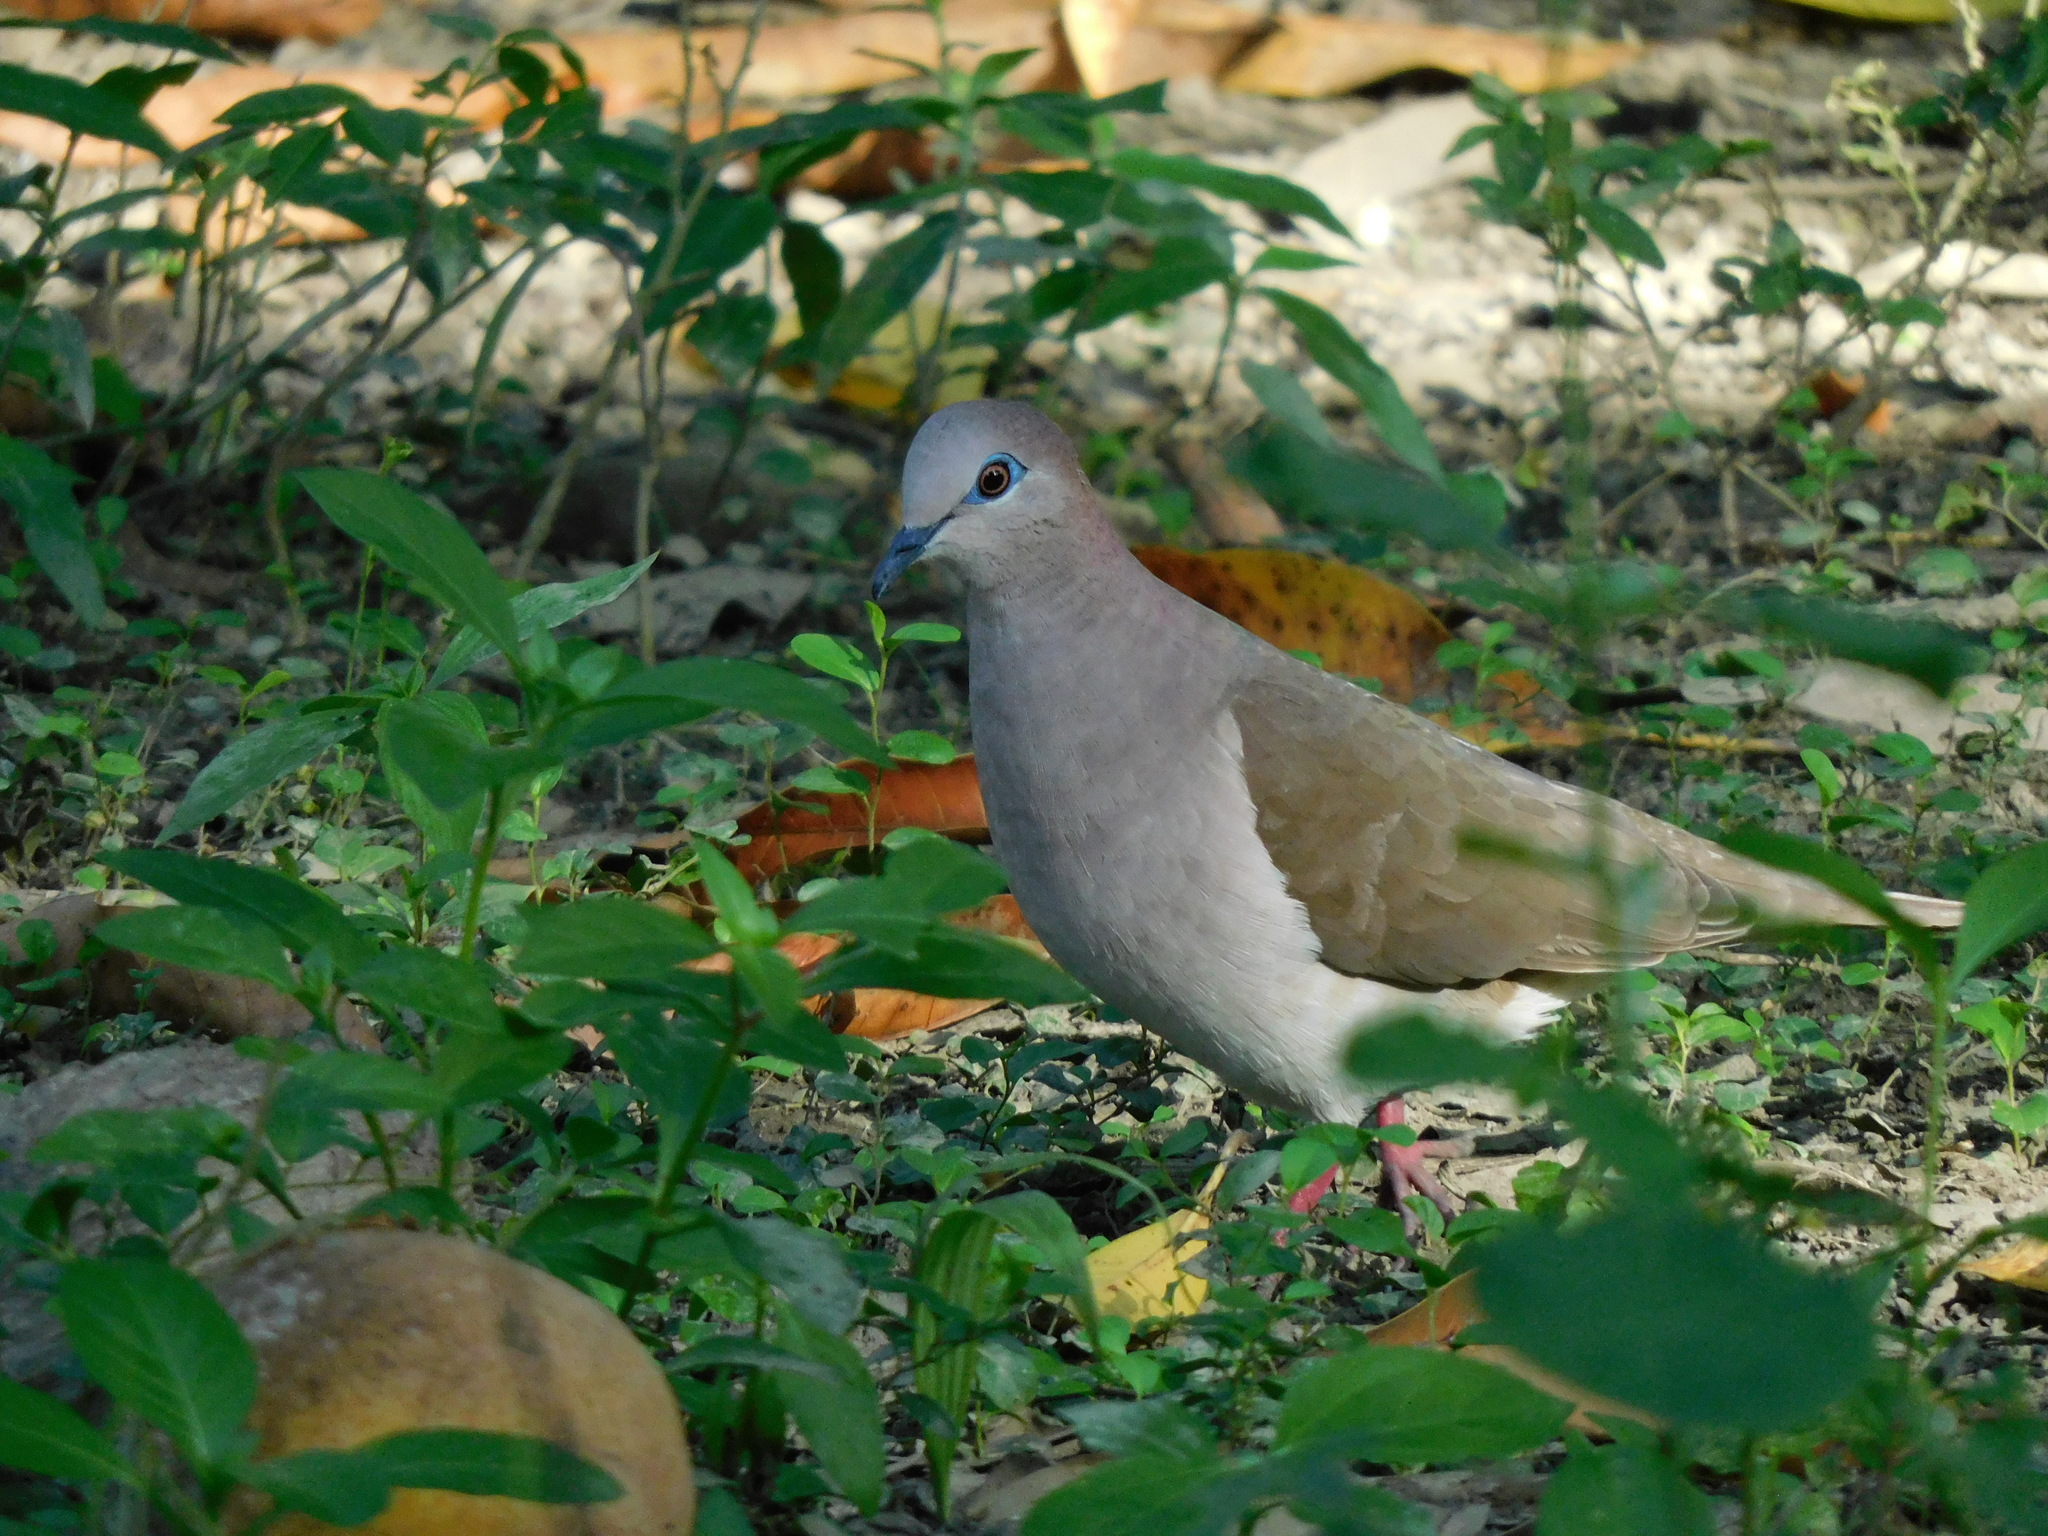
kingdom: Animalia
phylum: Chordata
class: Aves
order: Columbiformes
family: Columbidae
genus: Leptotila
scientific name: Leptotila verreauxi
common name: White-tipped dove
